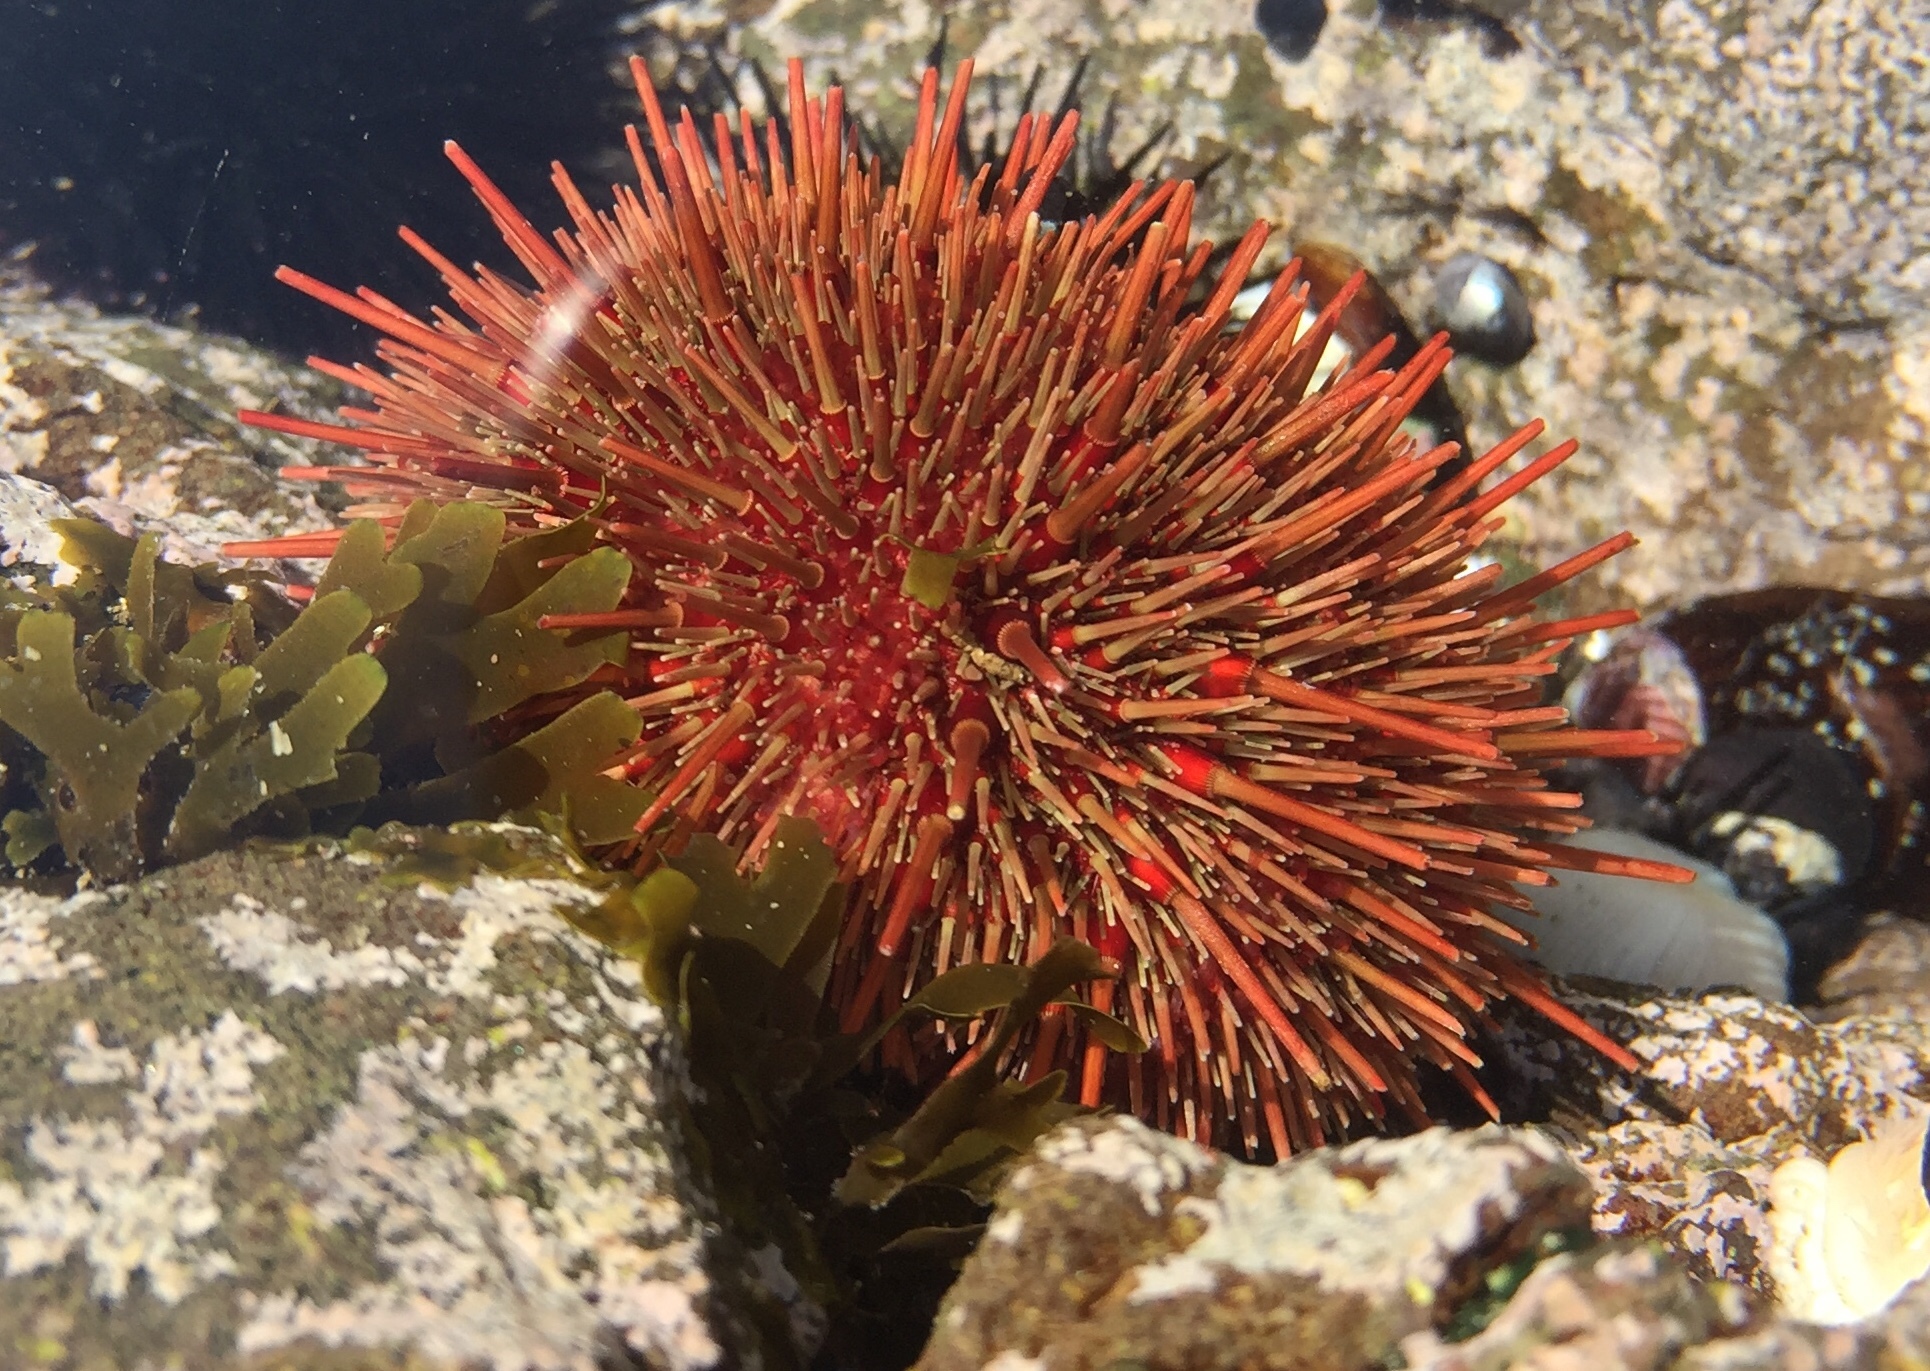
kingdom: Animalia
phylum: Echinodermata
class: Echinoidea
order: Camarodonta
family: Parechinidae
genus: Loxechinus
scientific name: Loxechinus albus
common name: Chilean sea urchin
